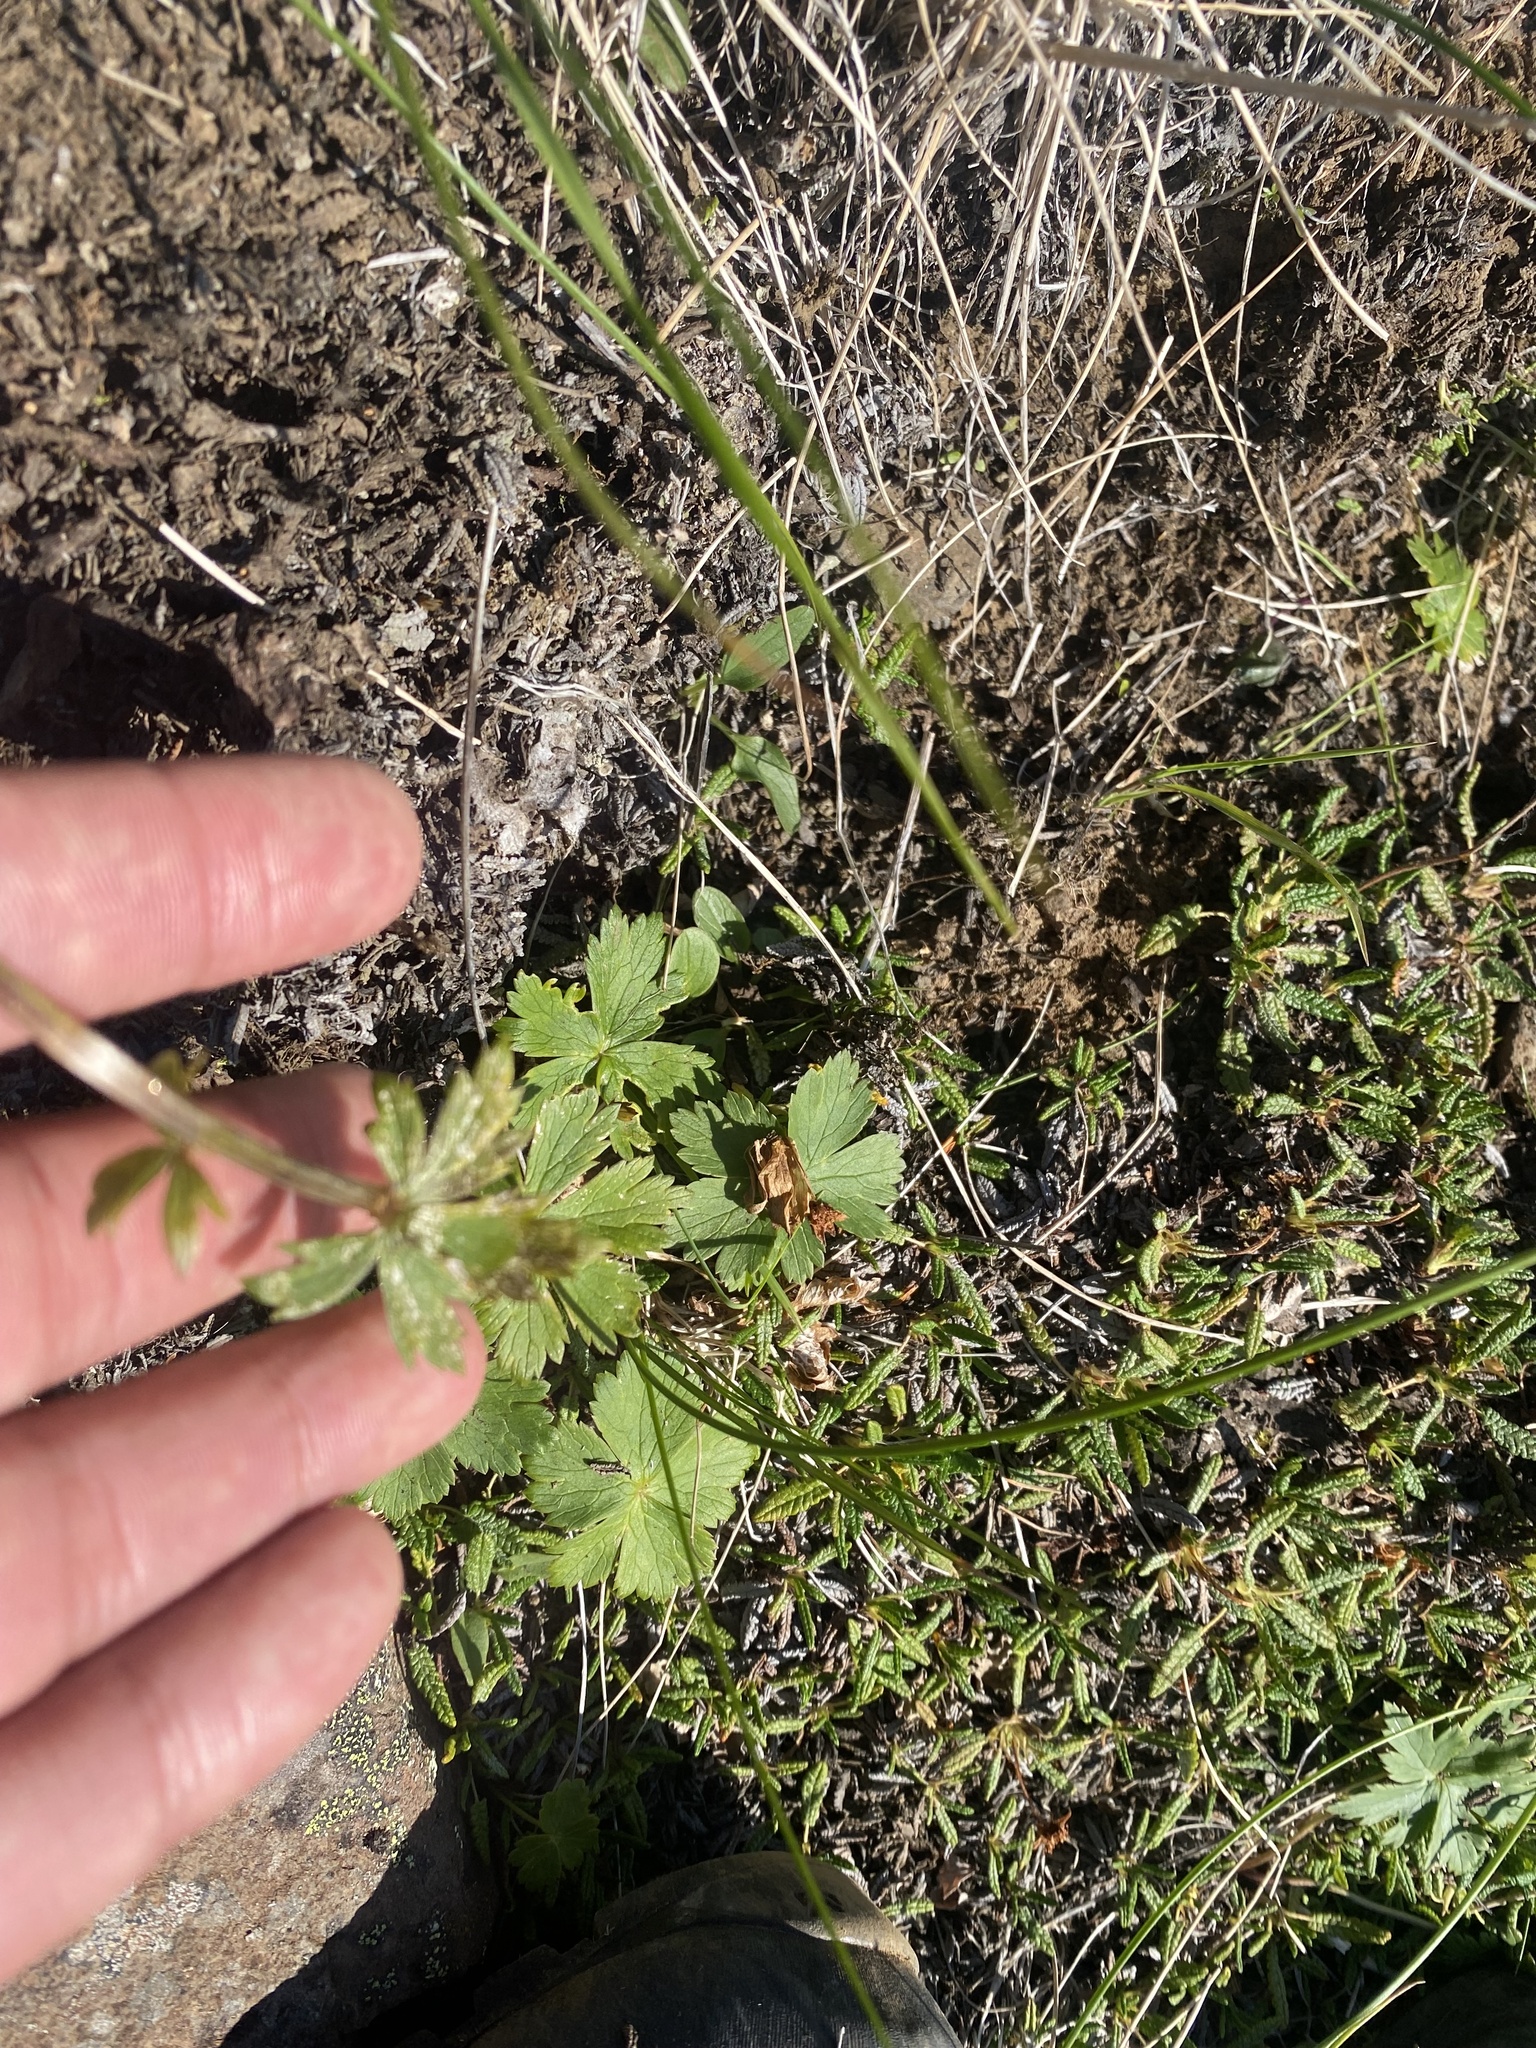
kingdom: Plantae
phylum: Tracheophyta
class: Magnoliopsida
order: Ranunculales
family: Ranunculaceae
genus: Trollius
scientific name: Trollius sibiricus
